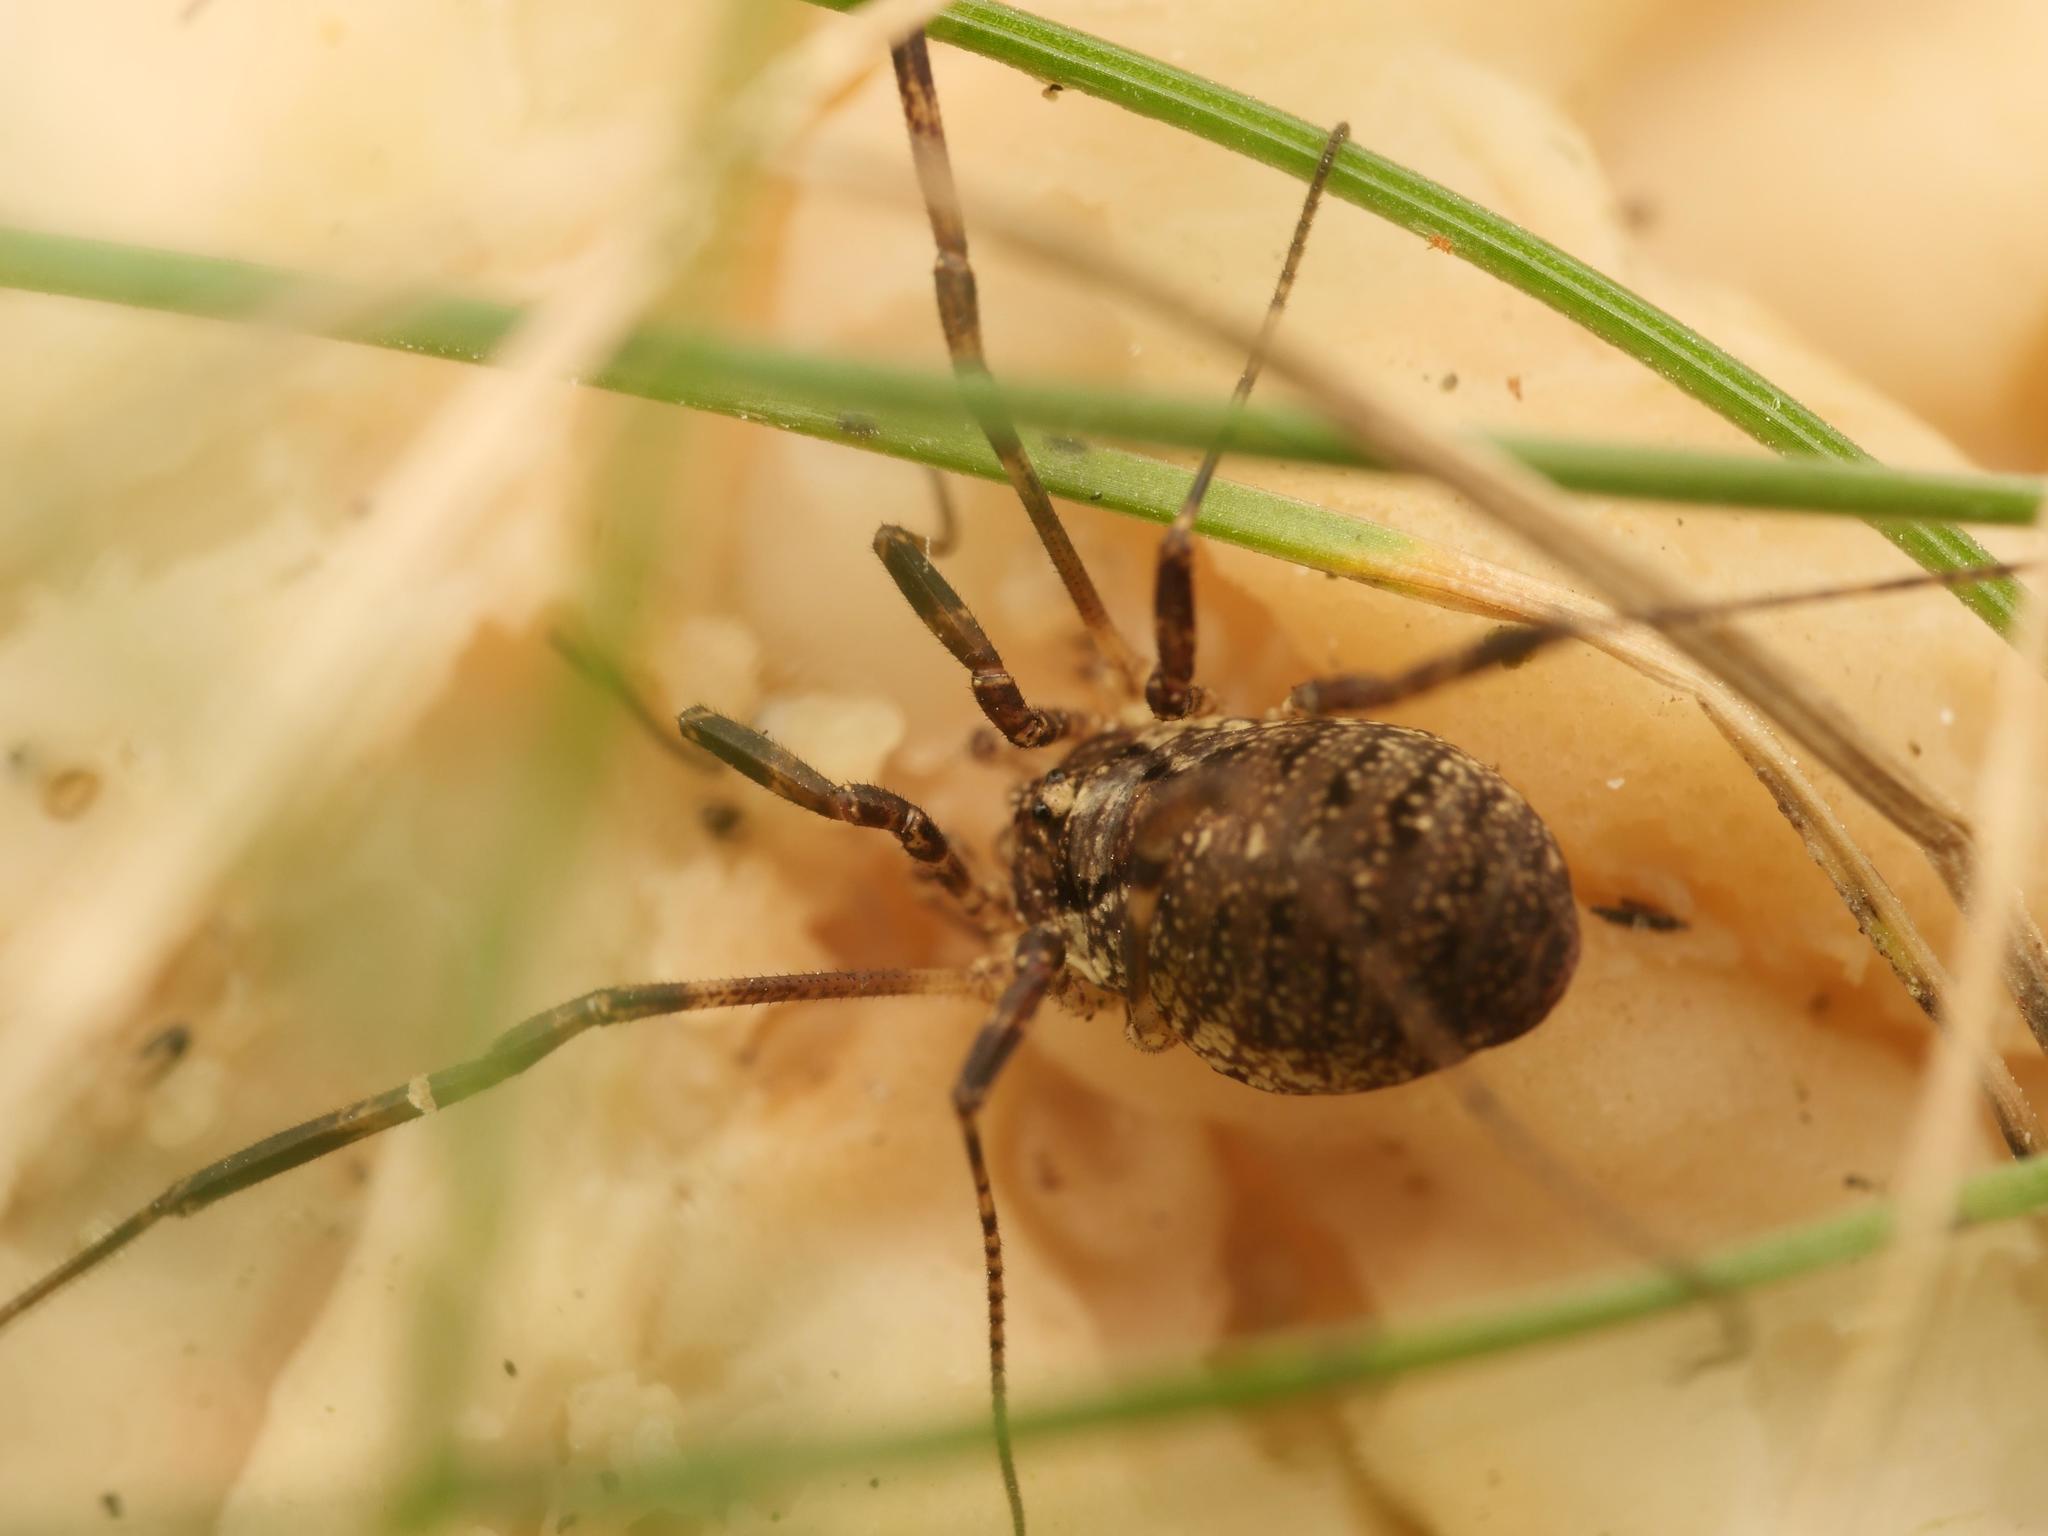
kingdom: Animalia
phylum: Arthropoda
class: Arachnida
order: Opiliones
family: Phalangiidae
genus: Paroligolophus
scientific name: Paroligolophus agrestis
